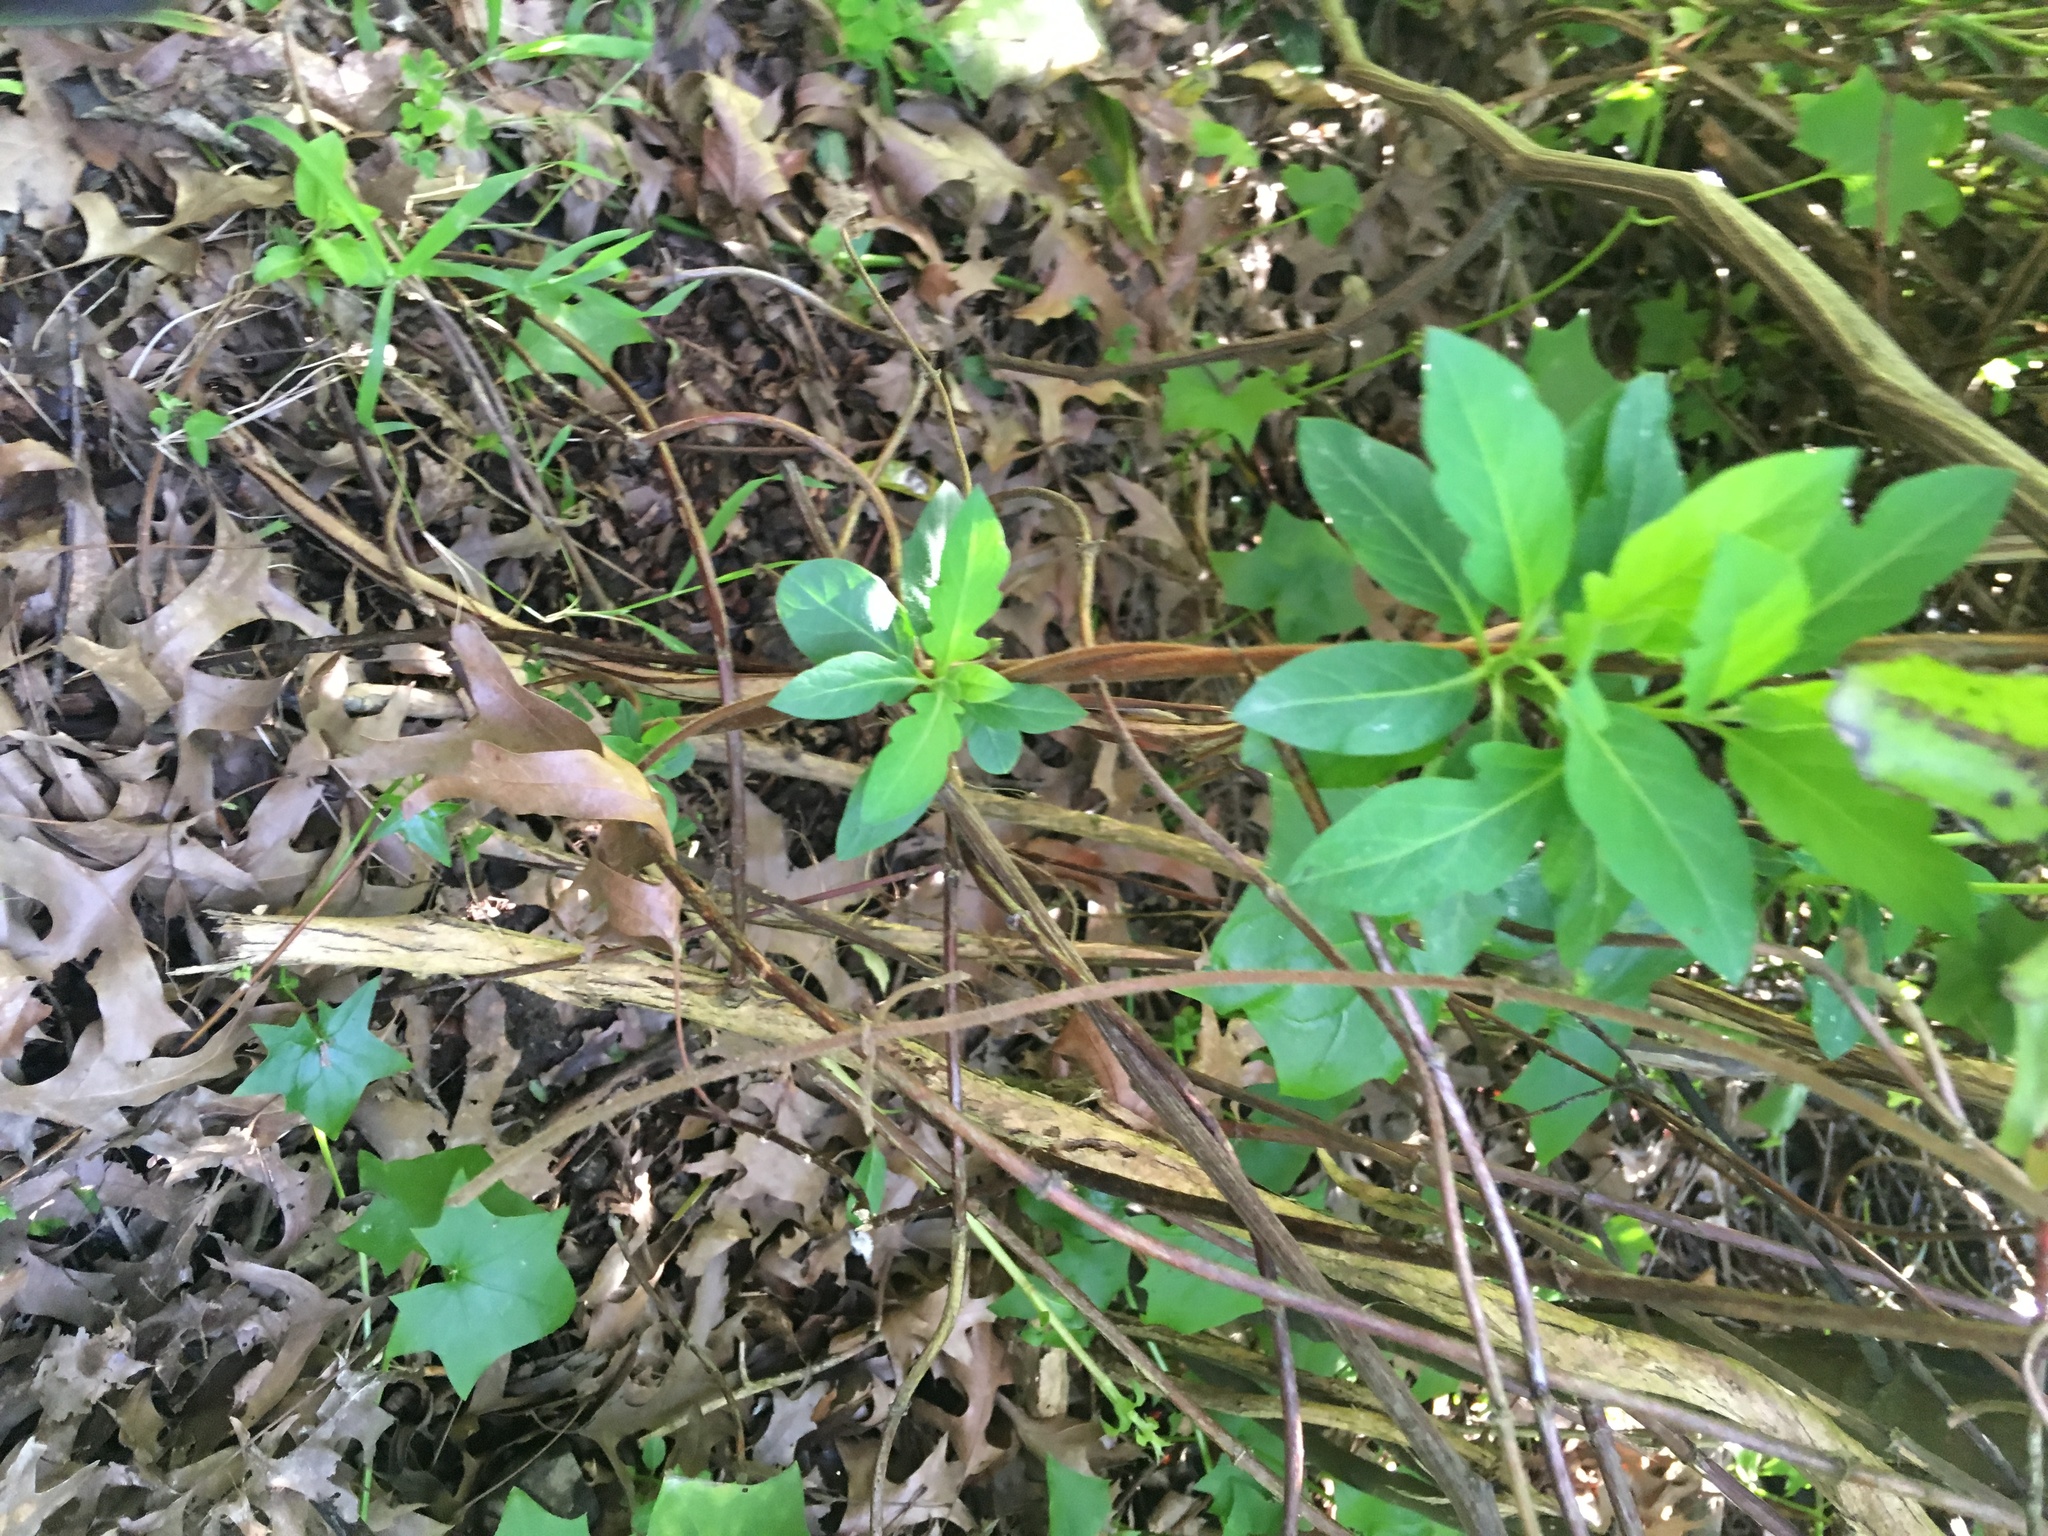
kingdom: Plantae
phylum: Tracheophyta
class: Magnoliopsida
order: Dipsacales
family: Caprifoliaceae
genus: Lonicera
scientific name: Lonicera japonica
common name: Japanese honeysuckle
